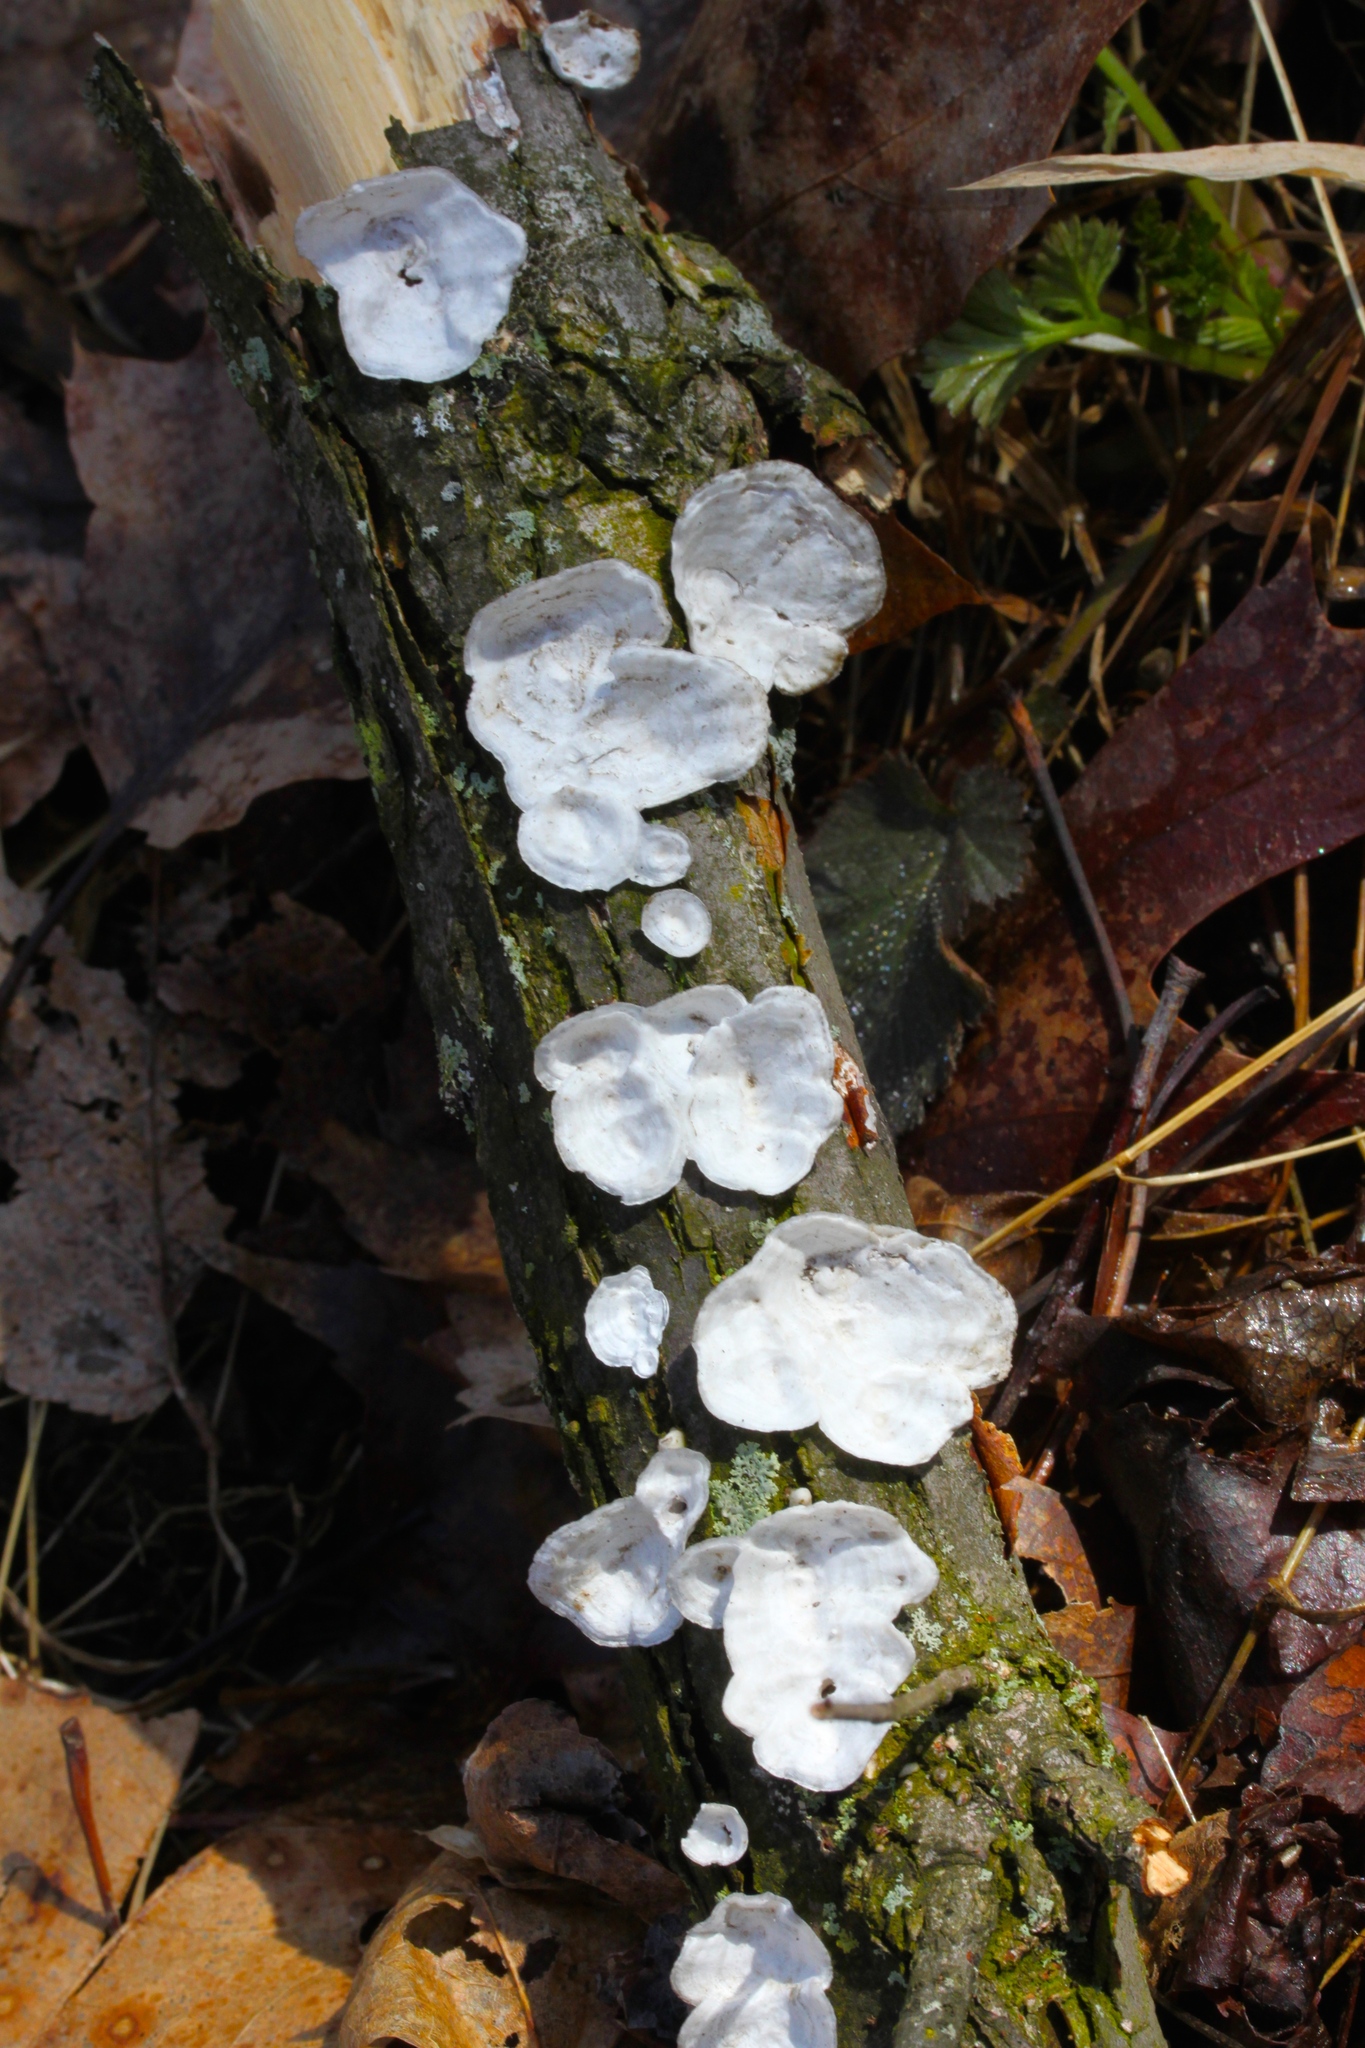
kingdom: Fungi
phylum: Basidiomycota
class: Agaricomycetes
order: Polyporales
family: Polyporaceae
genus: Poronidulus
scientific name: Poronidulus conchifer
